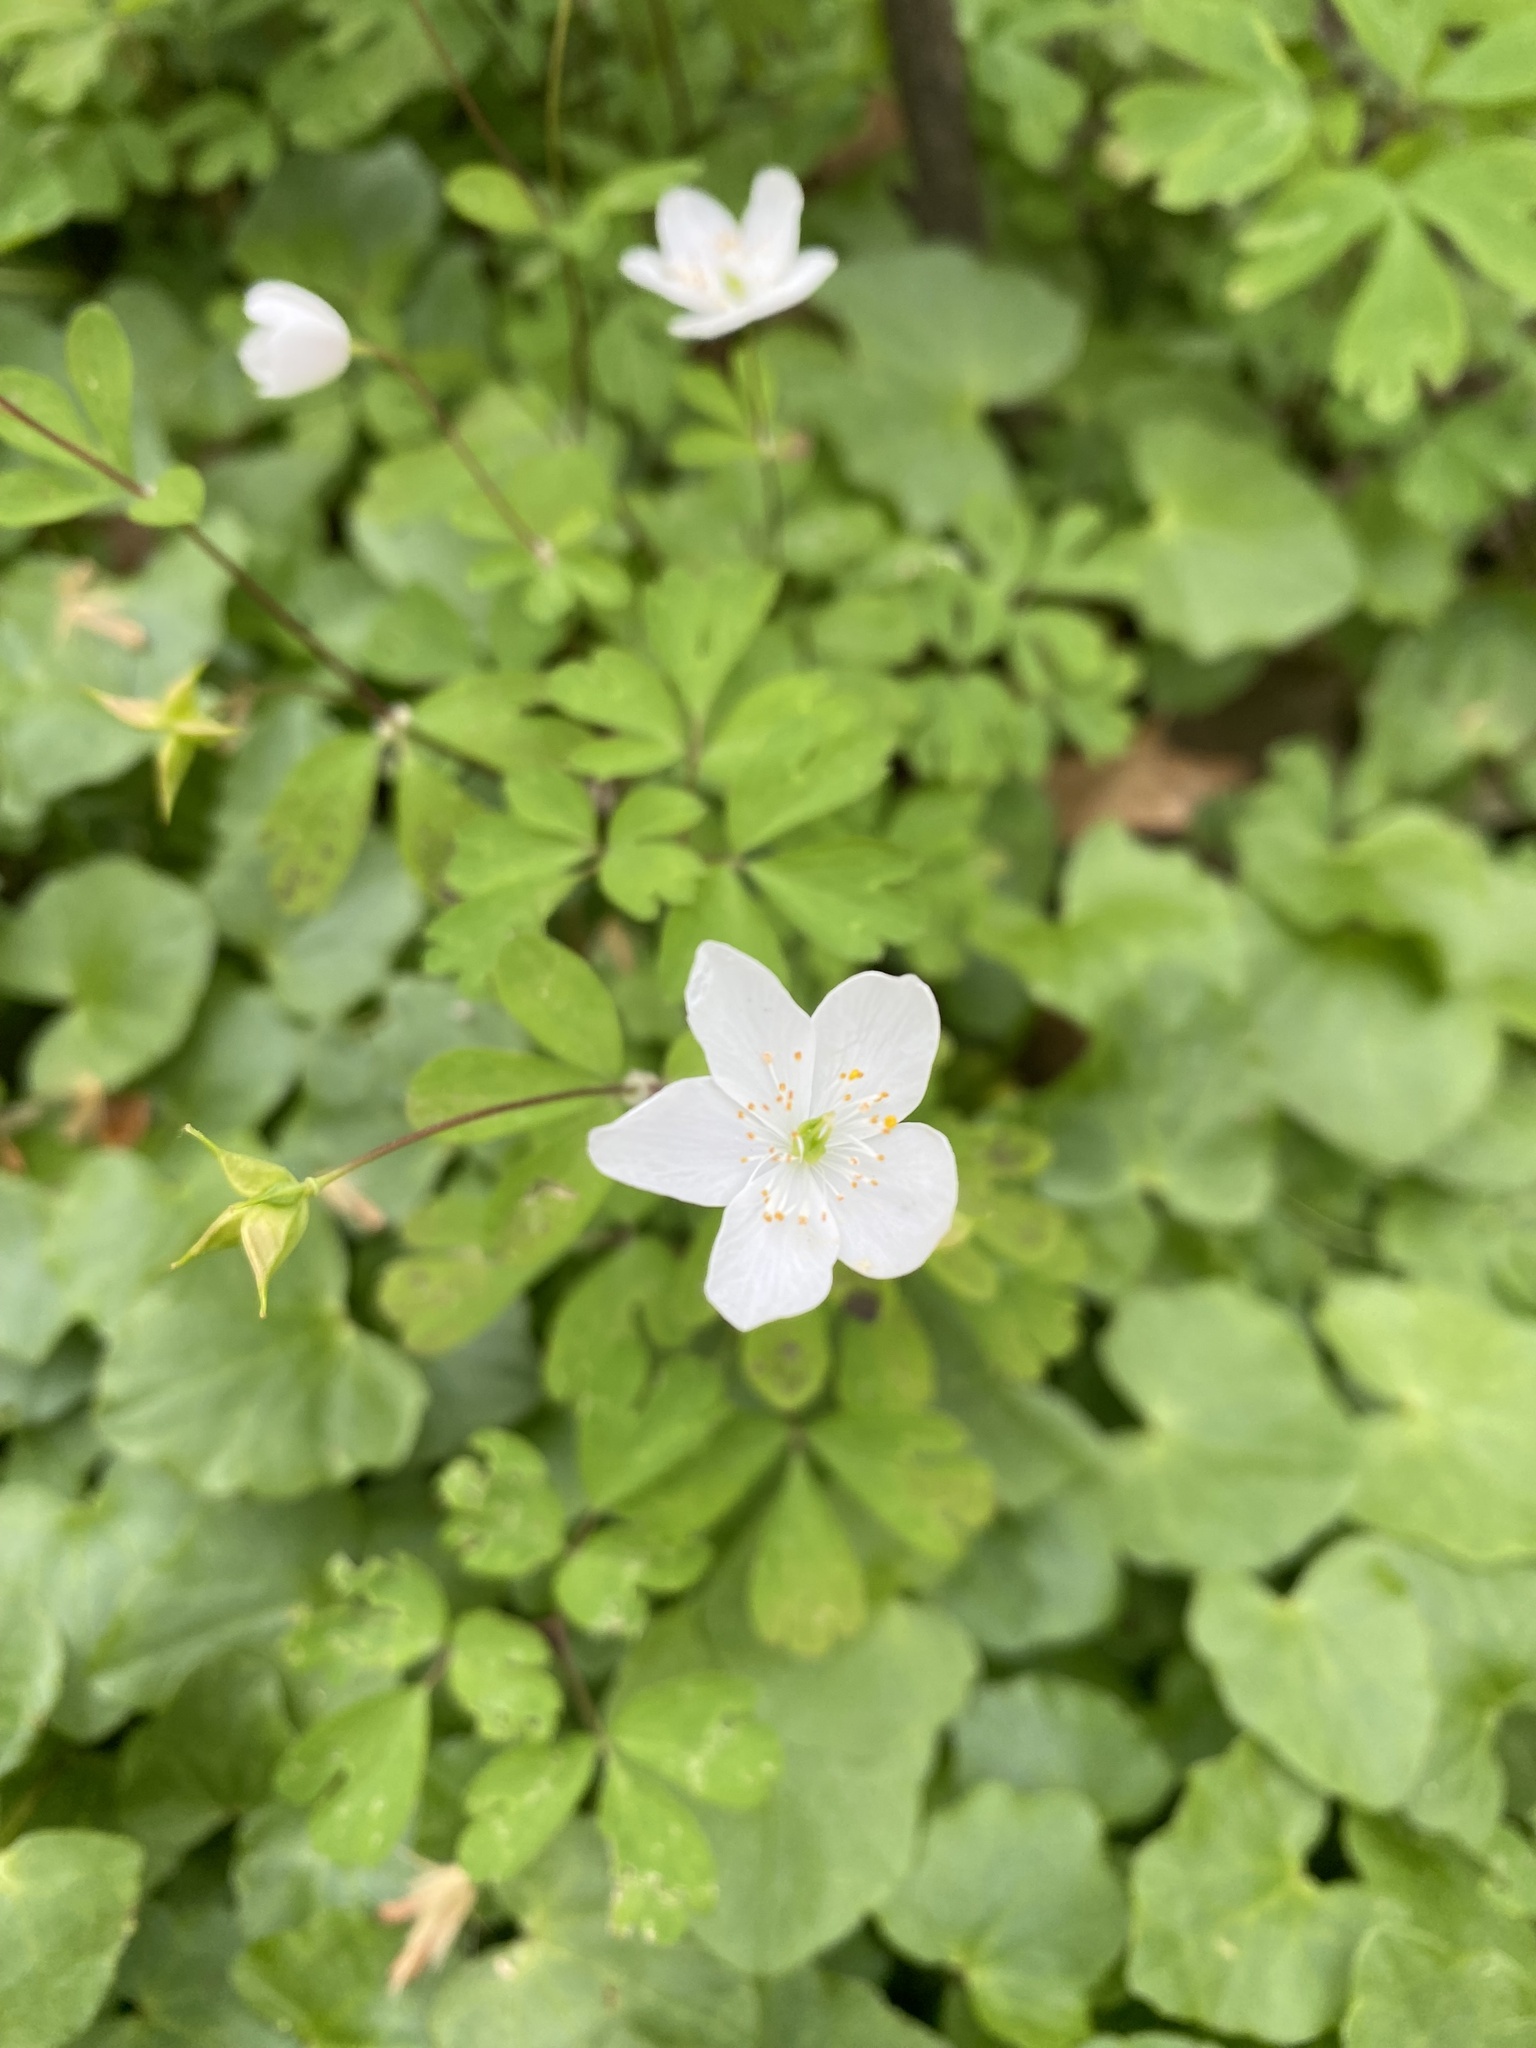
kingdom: Plantae
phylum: Tracheophyta
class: Magnoliopsida
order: Ranunculales
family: Ranunculaceae
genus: Enemion
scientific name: Enemion biternatum
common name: Eastern false rue-anemone
